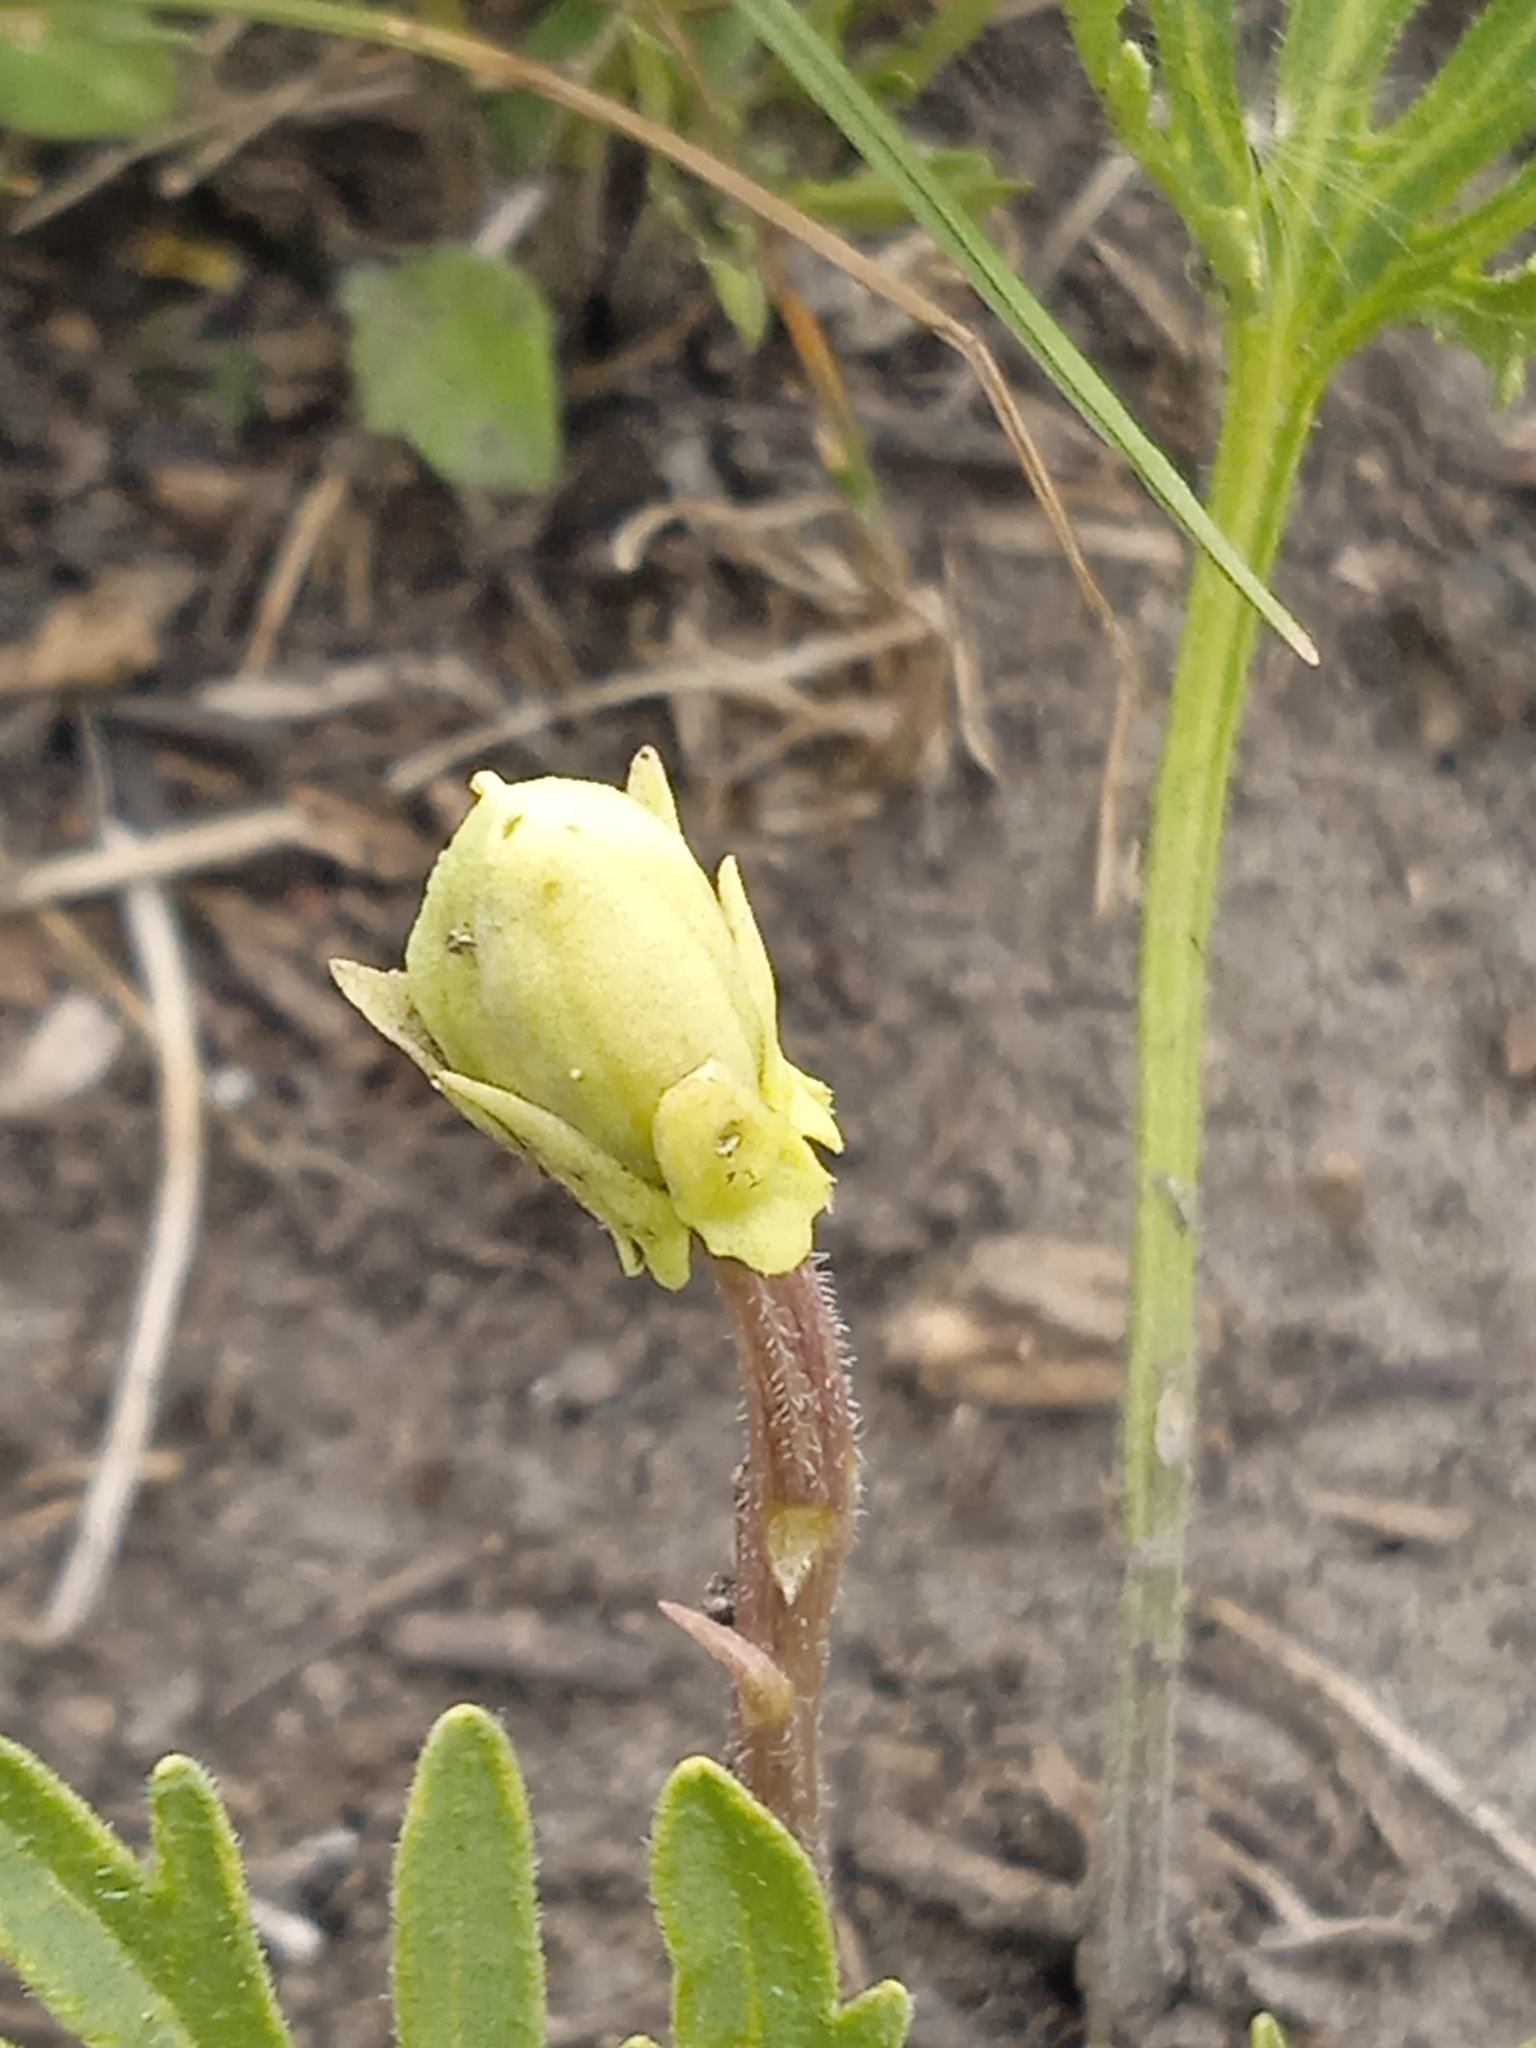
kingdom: Plantae
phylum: Tracheophyta
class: Magnoliopsida
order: Malpighiales
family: Violaceae
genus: Viola
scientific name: Viola multifida
